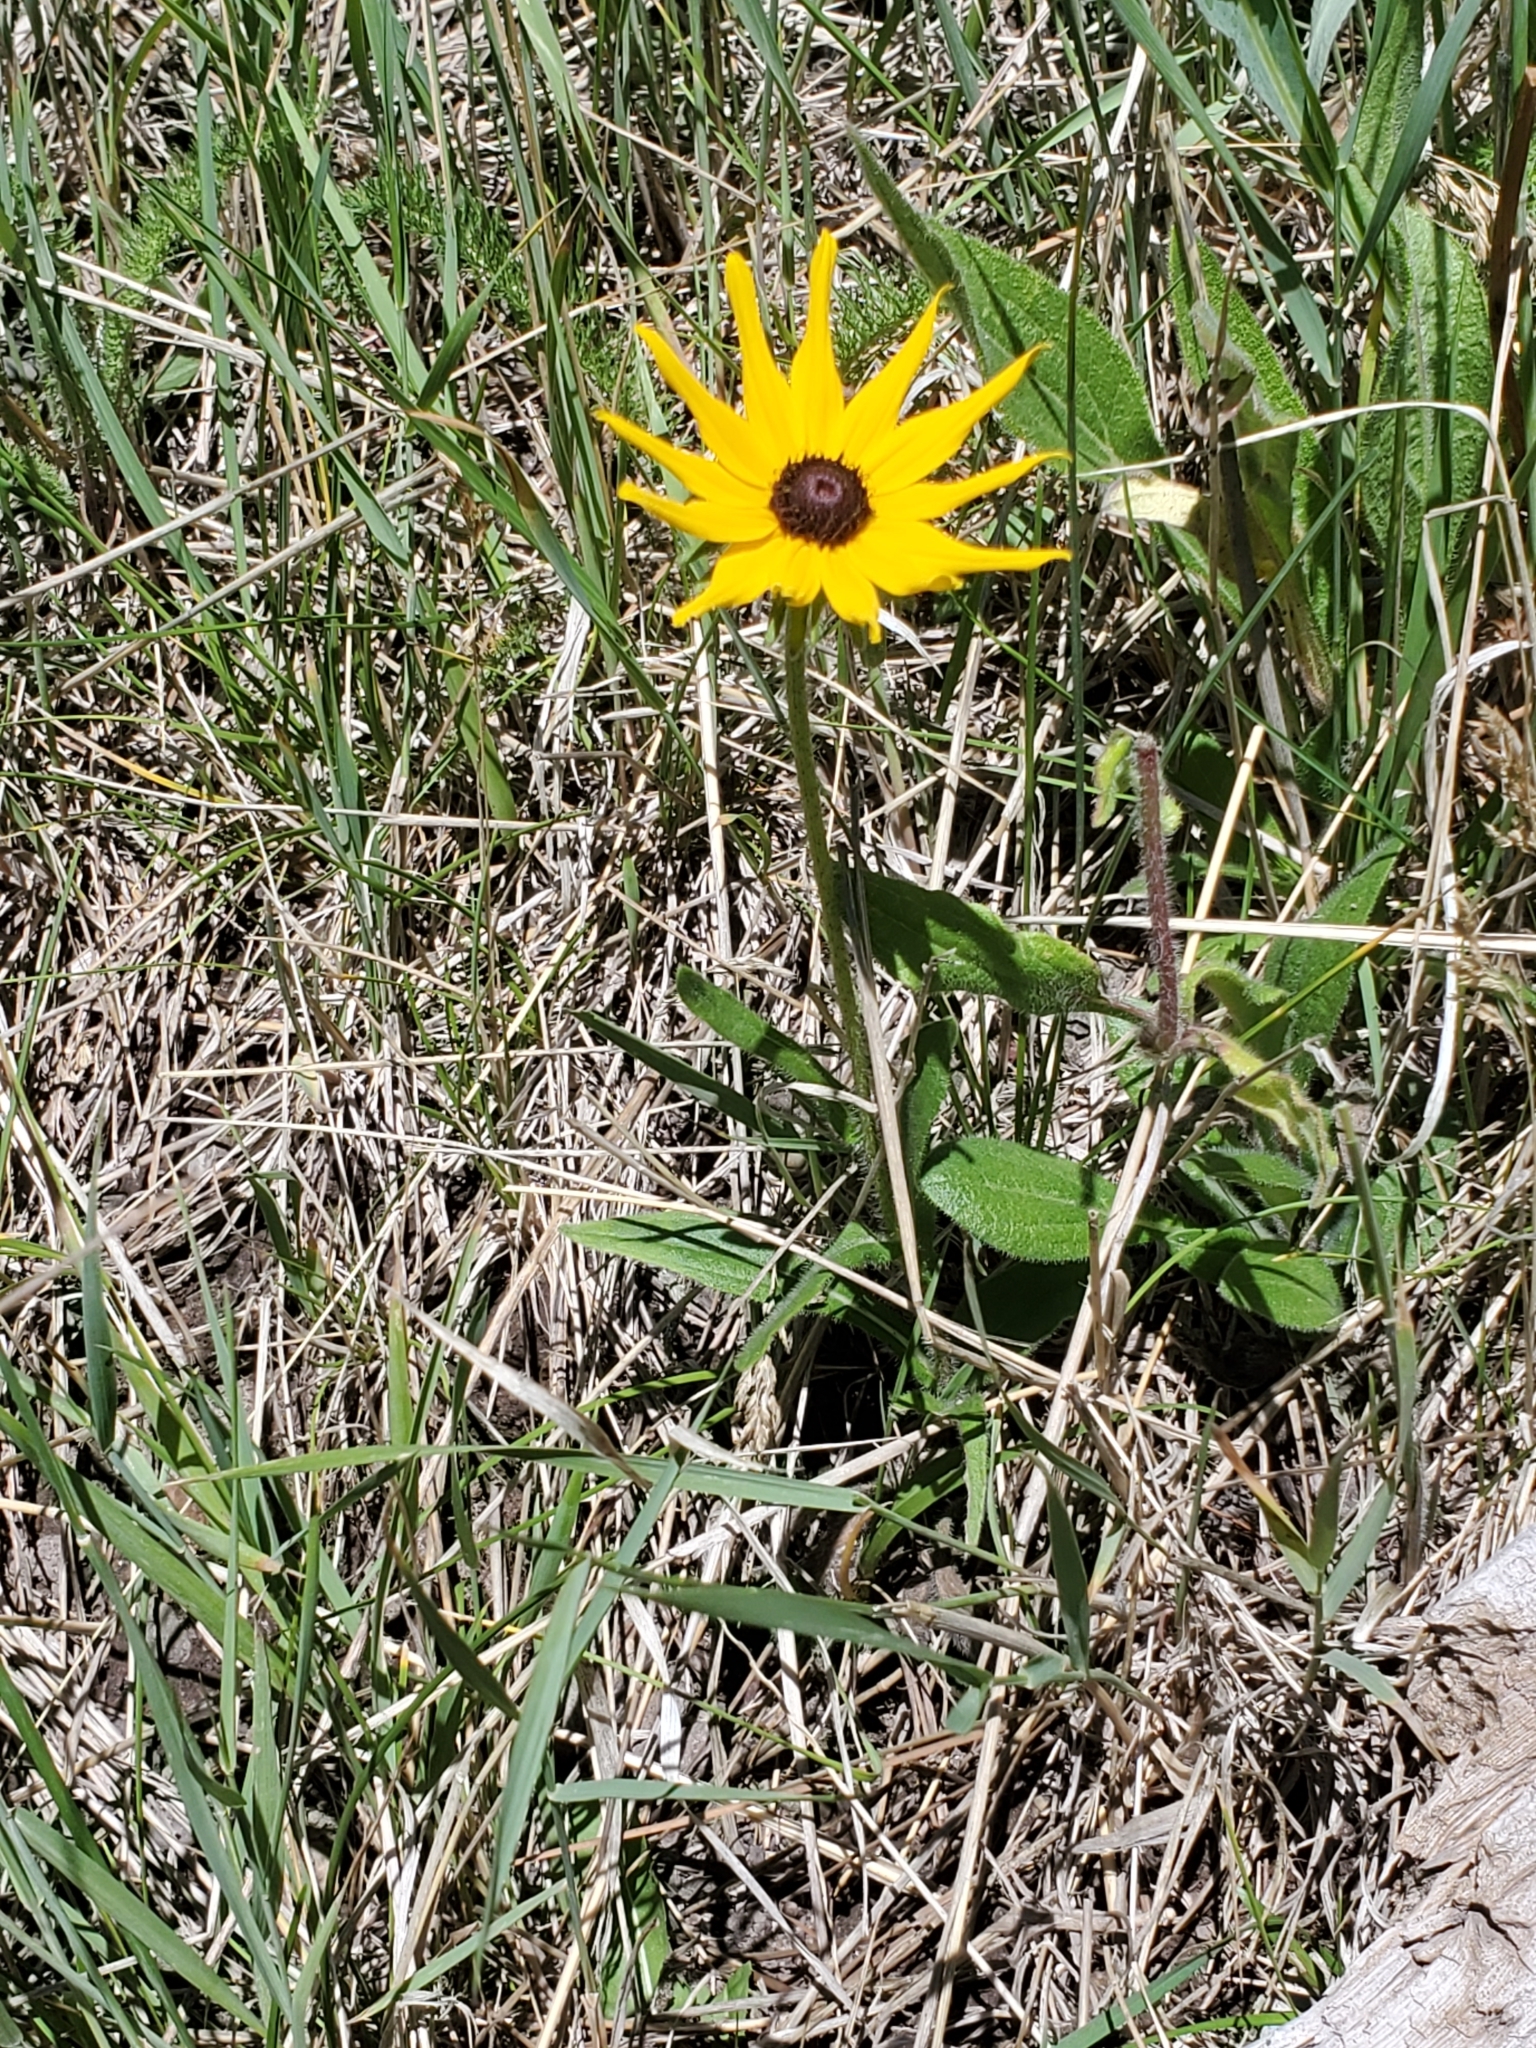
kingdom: Plantae
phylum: Tracheophyta
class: Magnoliopsida
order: Asterales
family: Asteraceae
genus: Rudbeckia
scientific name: Rudbeckia hirta
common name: Black-eyed-susan
